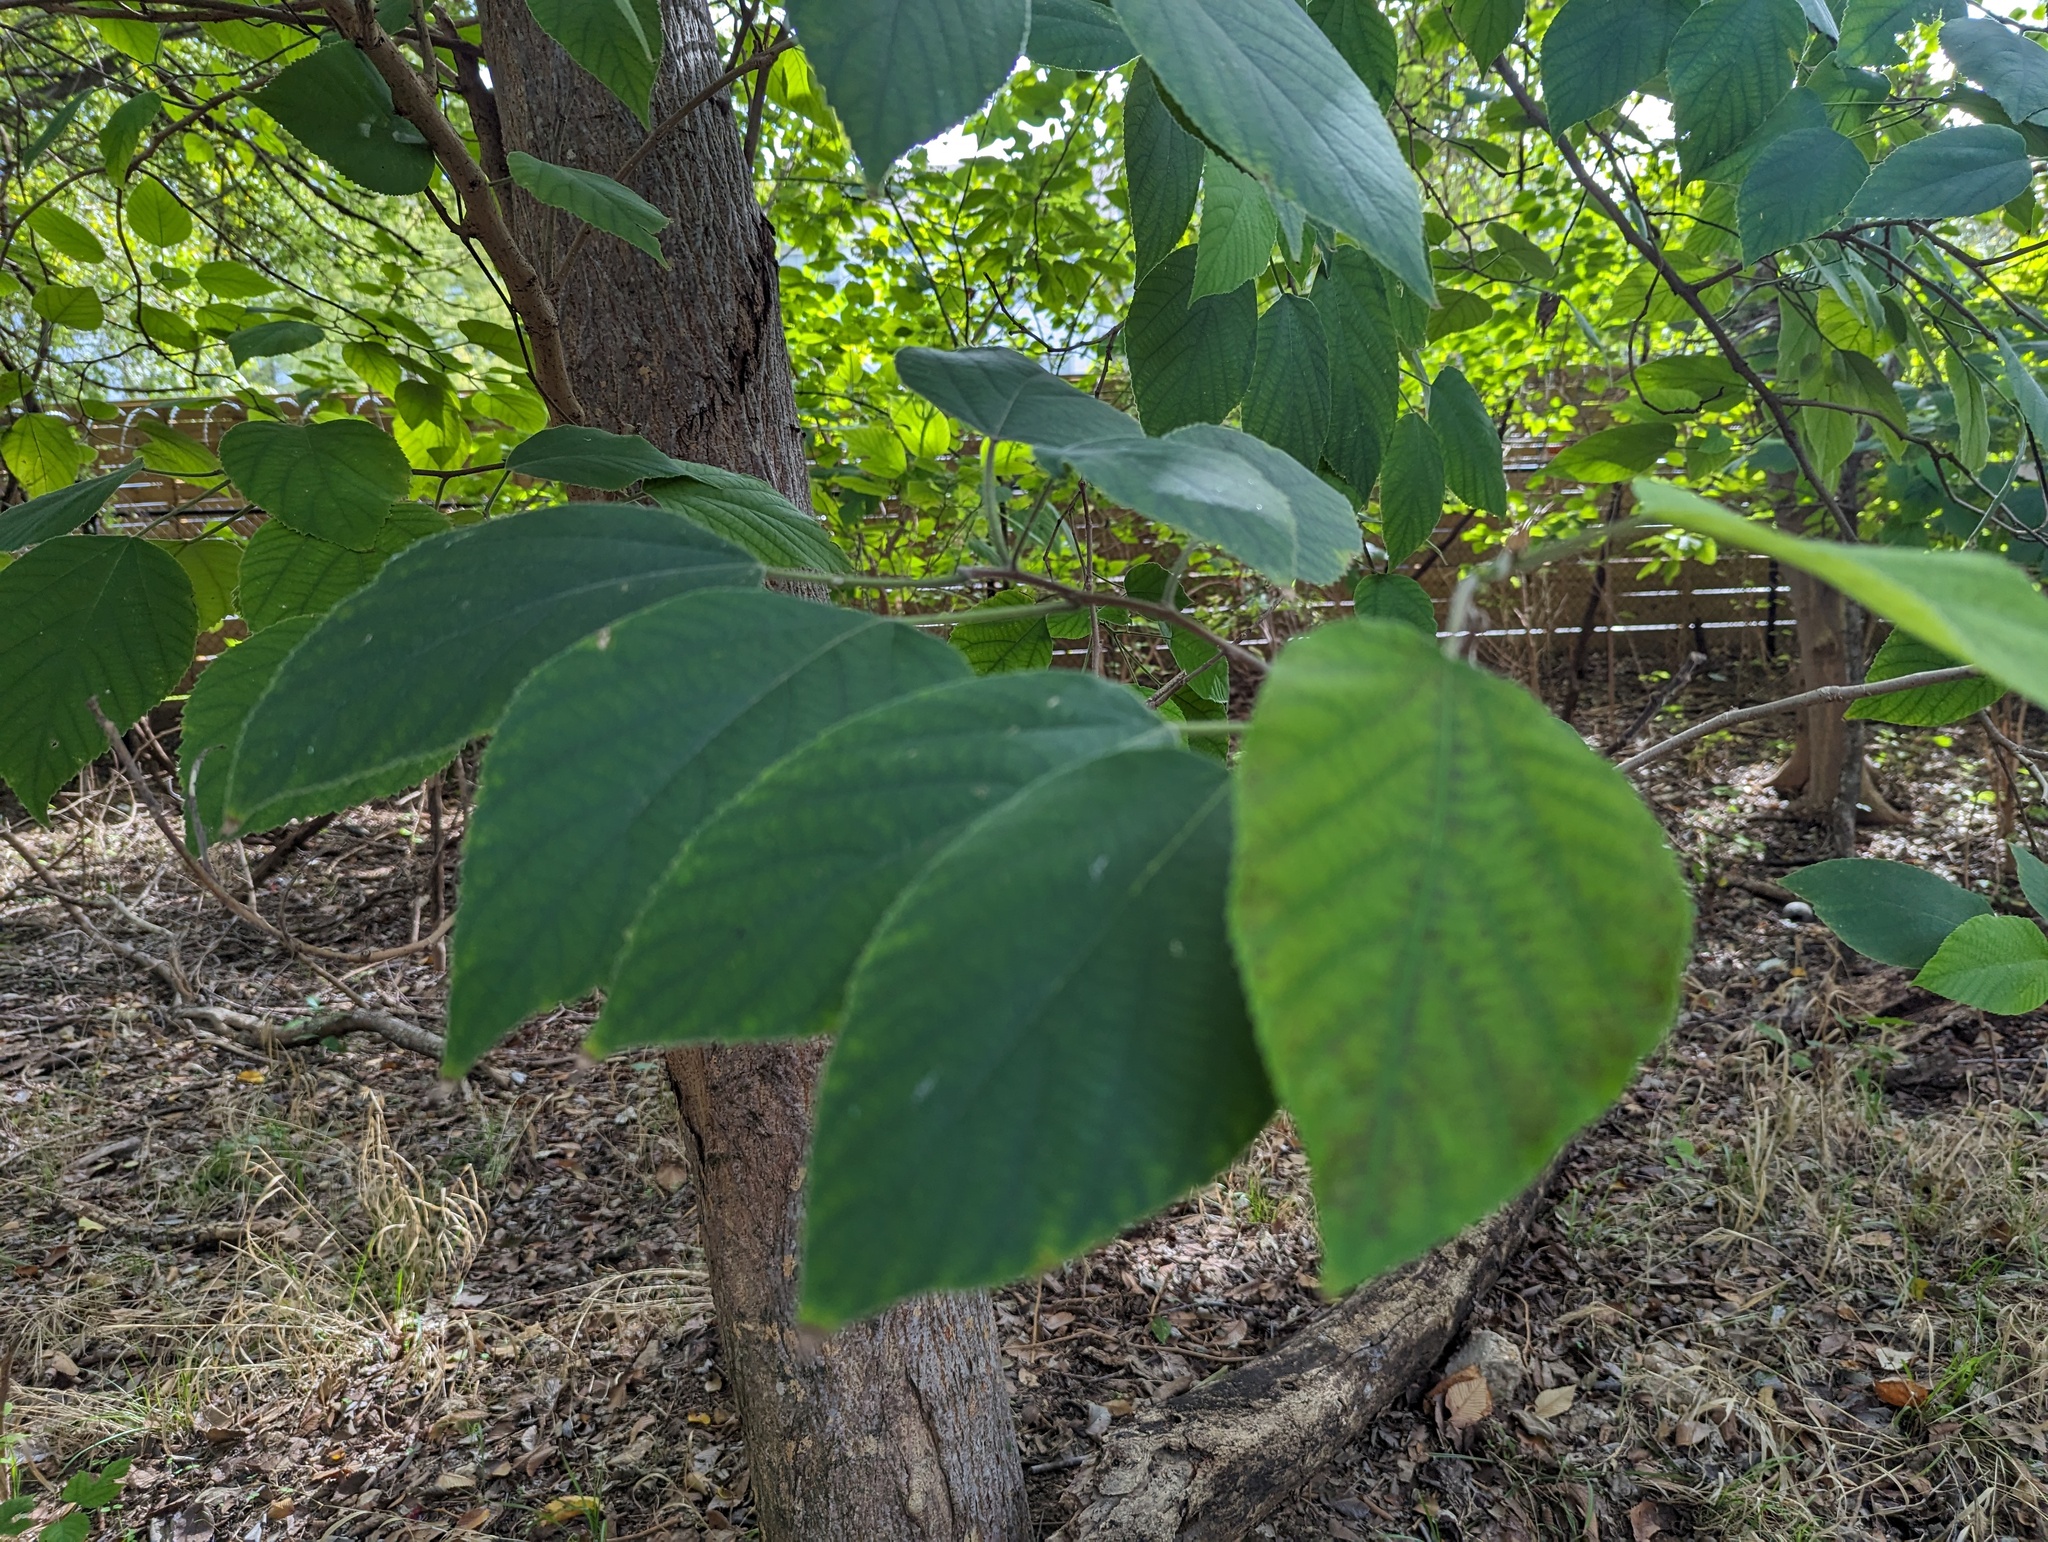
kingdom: Plantae
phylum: Tracheophyta
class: Magnoliopsida
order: Rosales
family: Moraceae
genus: Broussonetia
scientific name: Broussonetia papyrifera
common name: Paper mulberry
